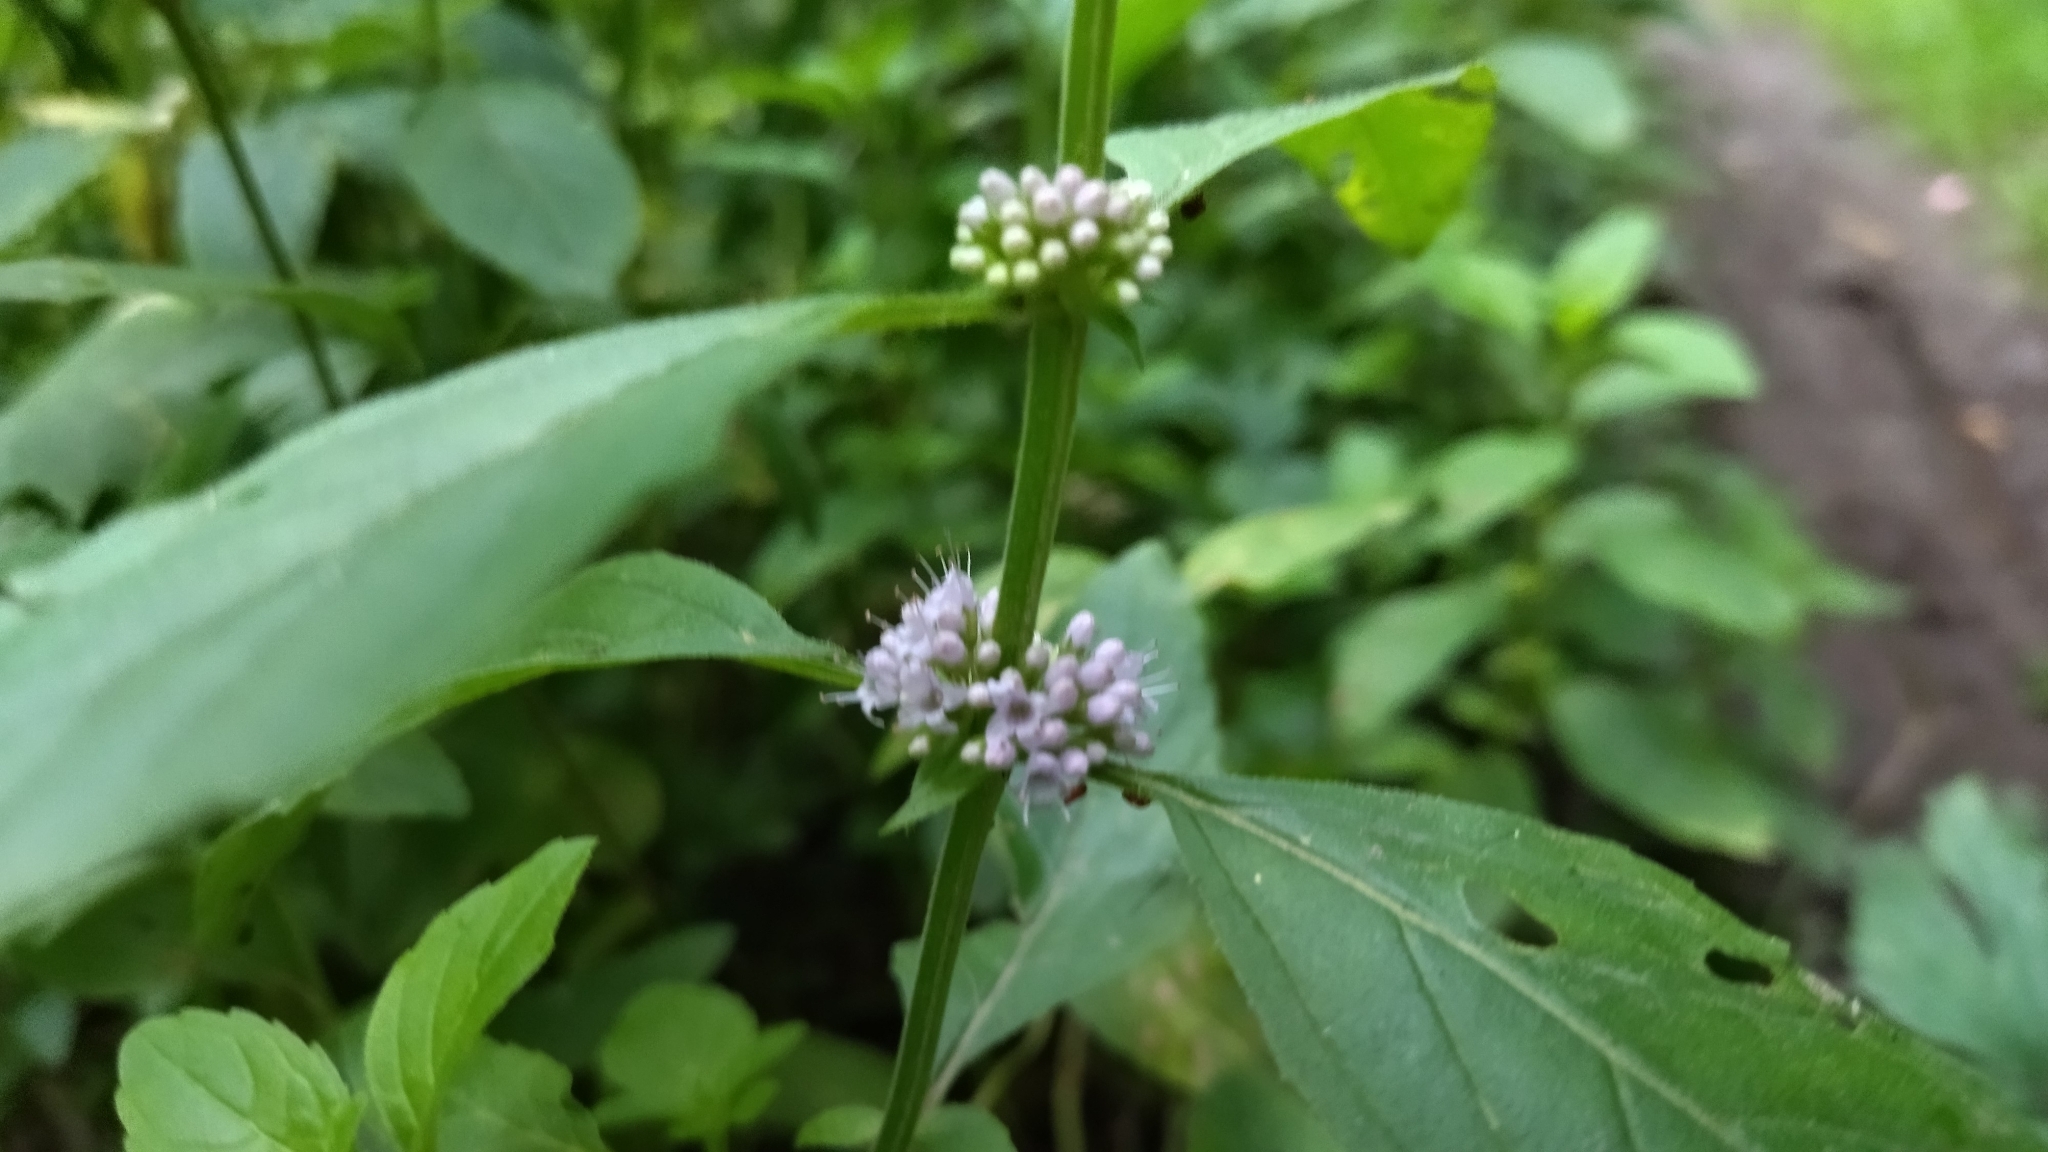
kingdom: Plantae
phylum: Tracheophyta
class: Magnoliopsida
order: Lamiales
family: Lamiaceae
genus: Mentha
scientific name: Mentha arvensis
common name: Corn mint
